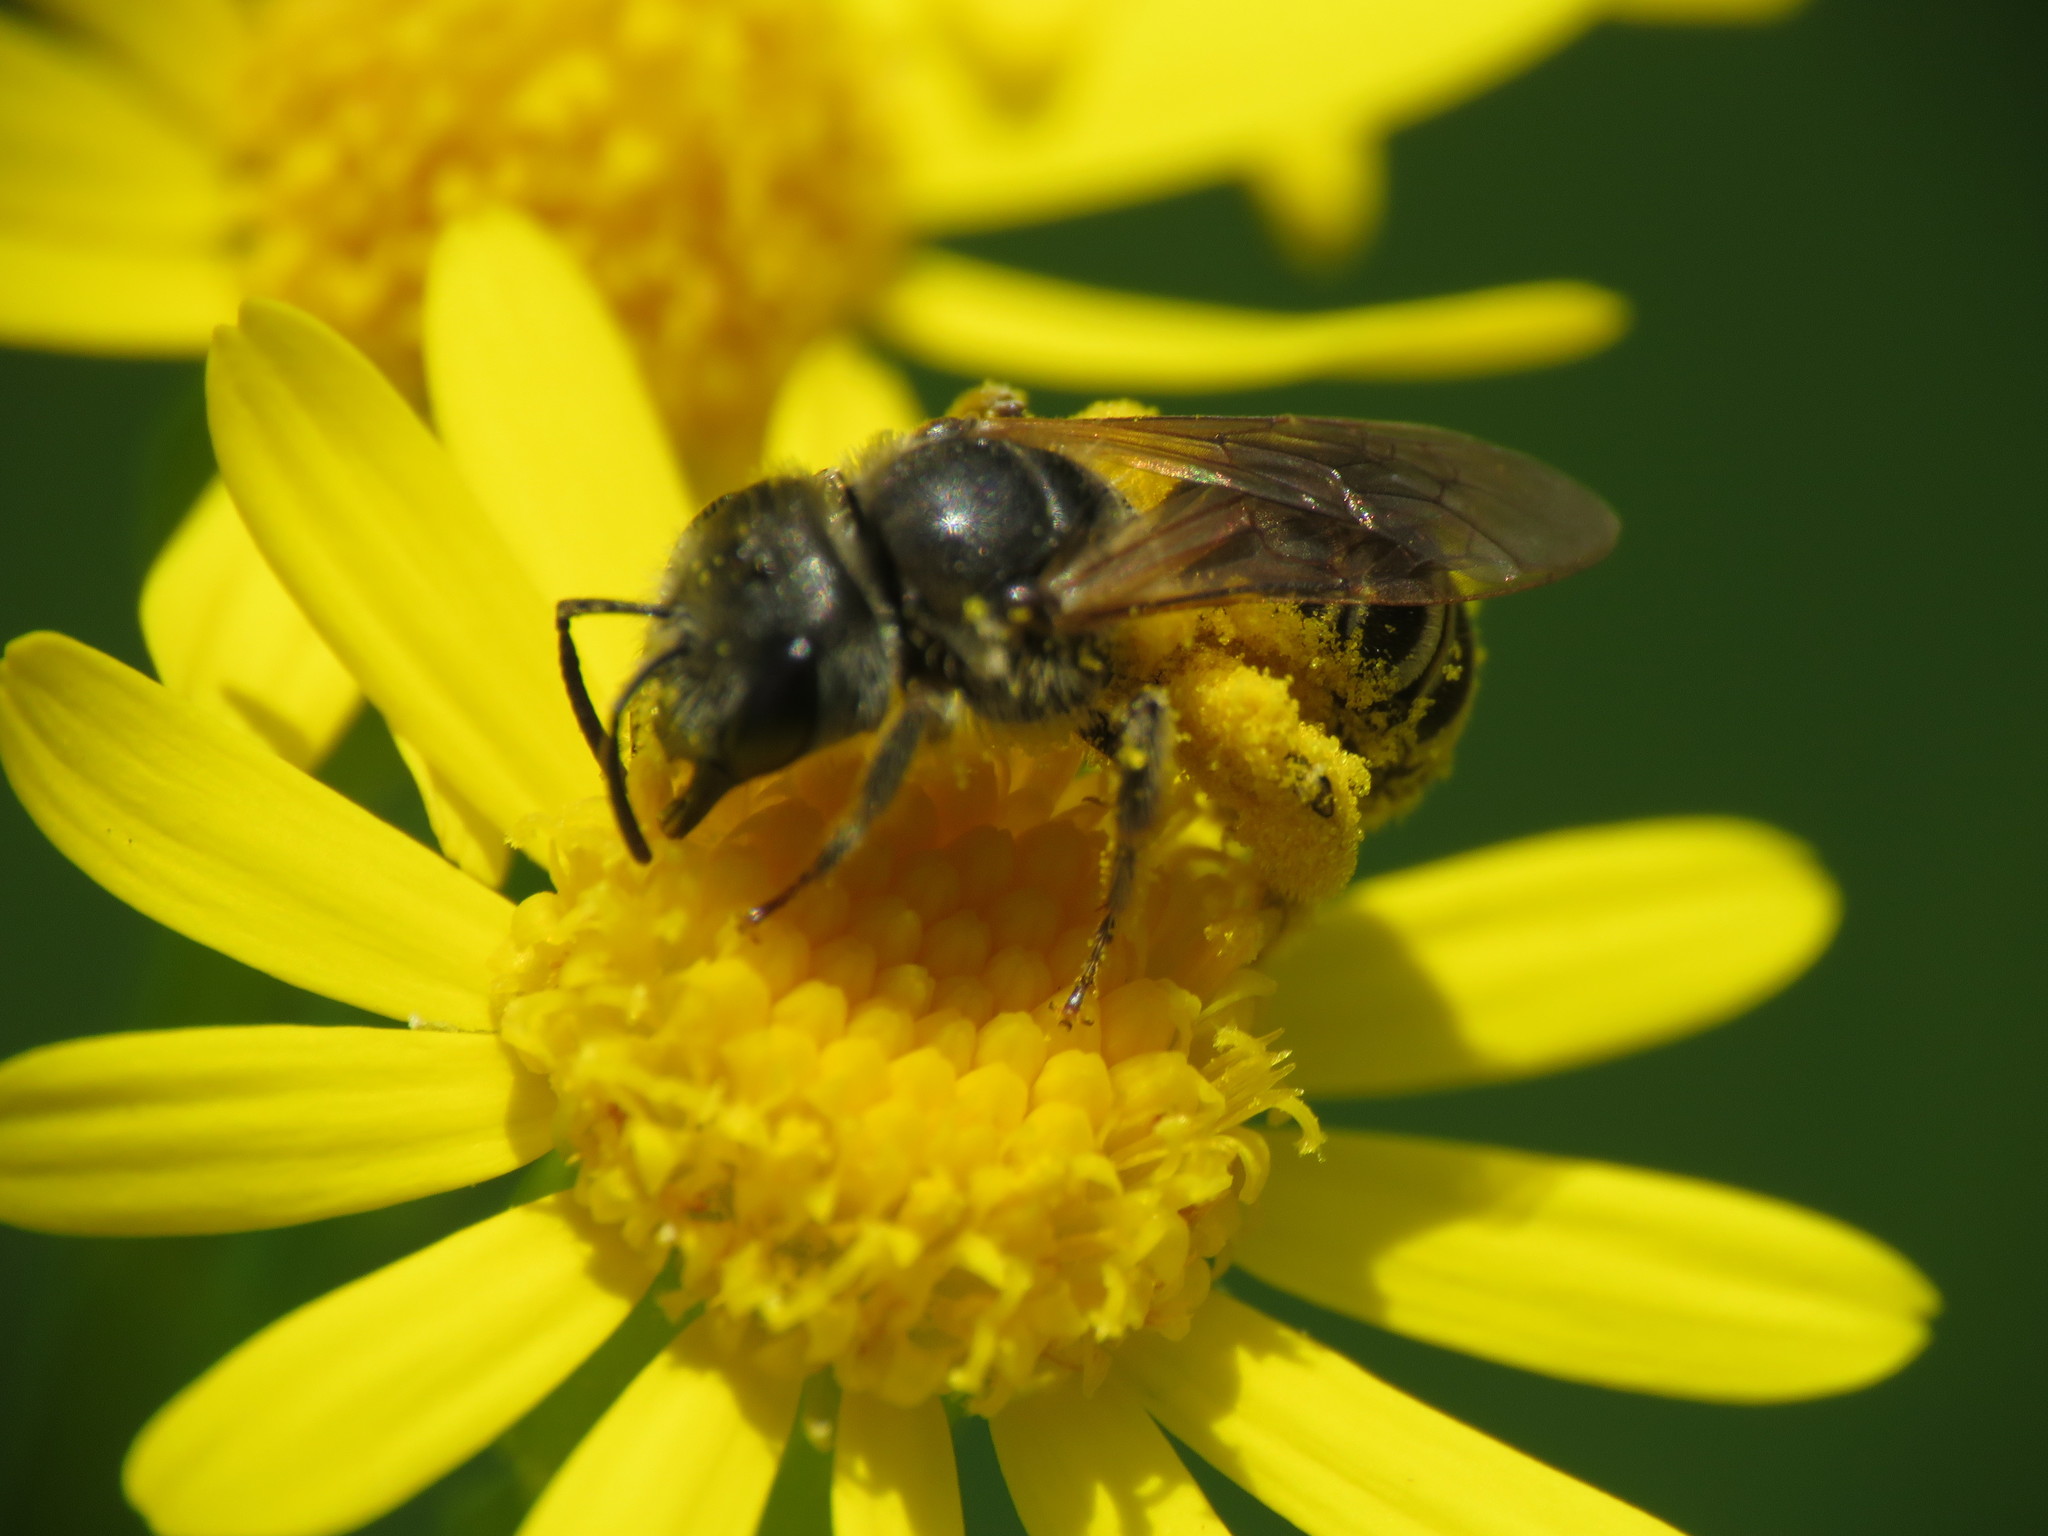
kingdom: Animalia
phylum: Arthropoda
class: Insecta
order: Hymenoptera
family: Halictidae
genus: Halictus
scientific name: Halictus ligatus
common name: Ligated furrow bee
